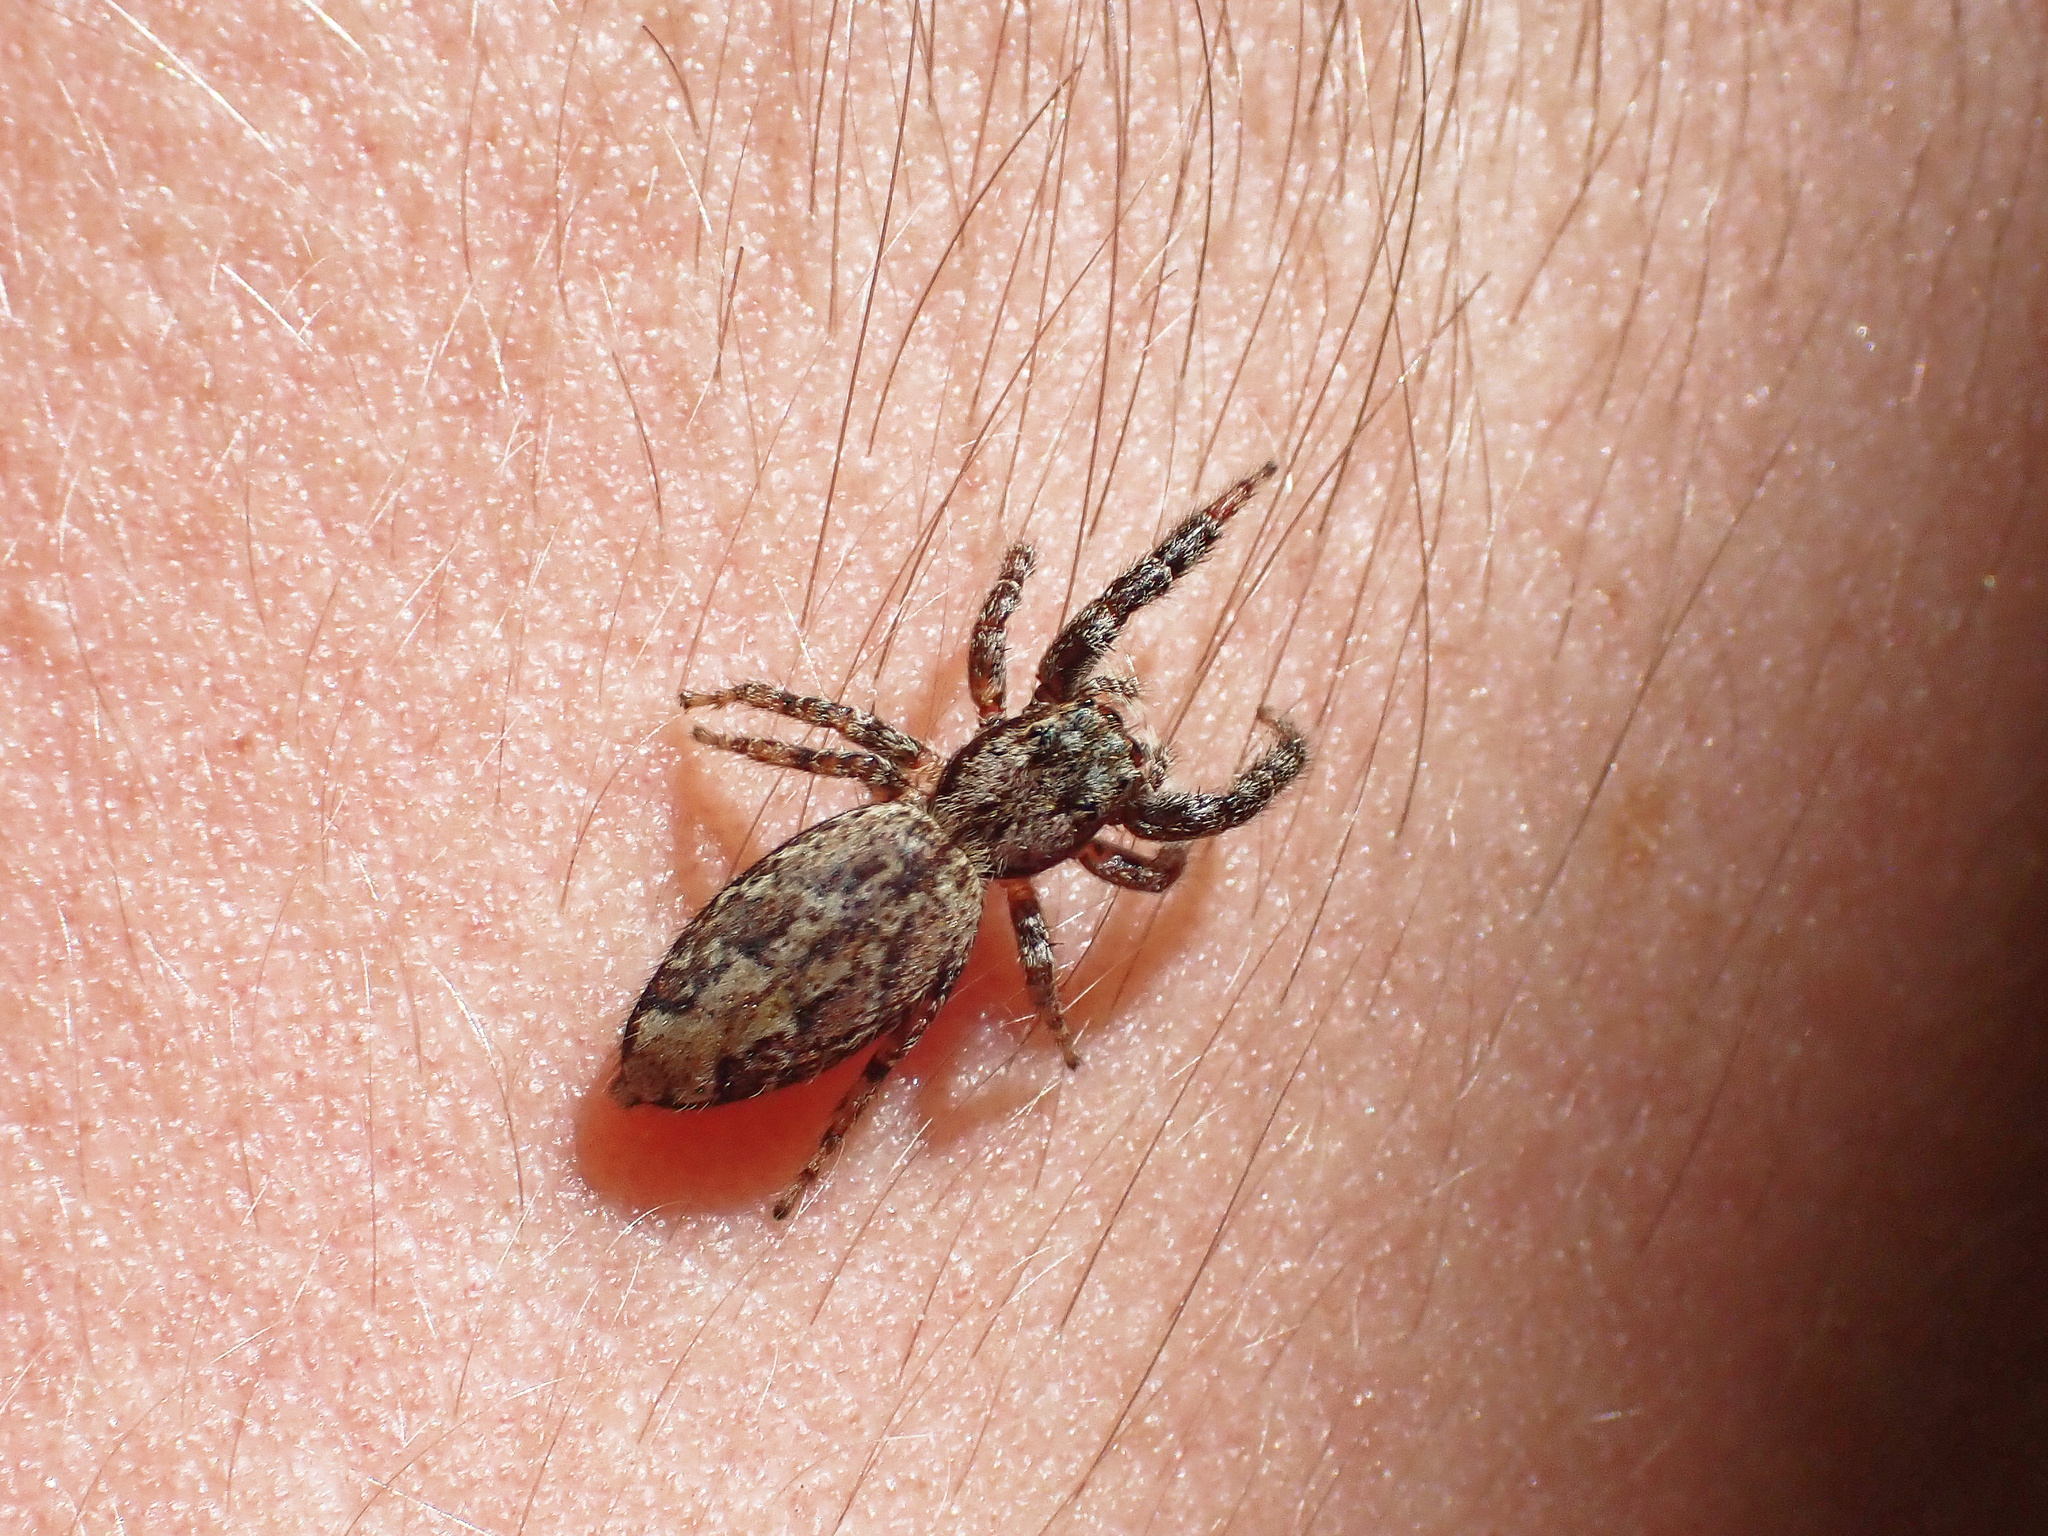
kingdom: Animalia
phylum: Arthropoda
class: Arachnida
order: Araneae
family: Salticidae
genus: Marpissa
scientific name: Marpissa muscosa
